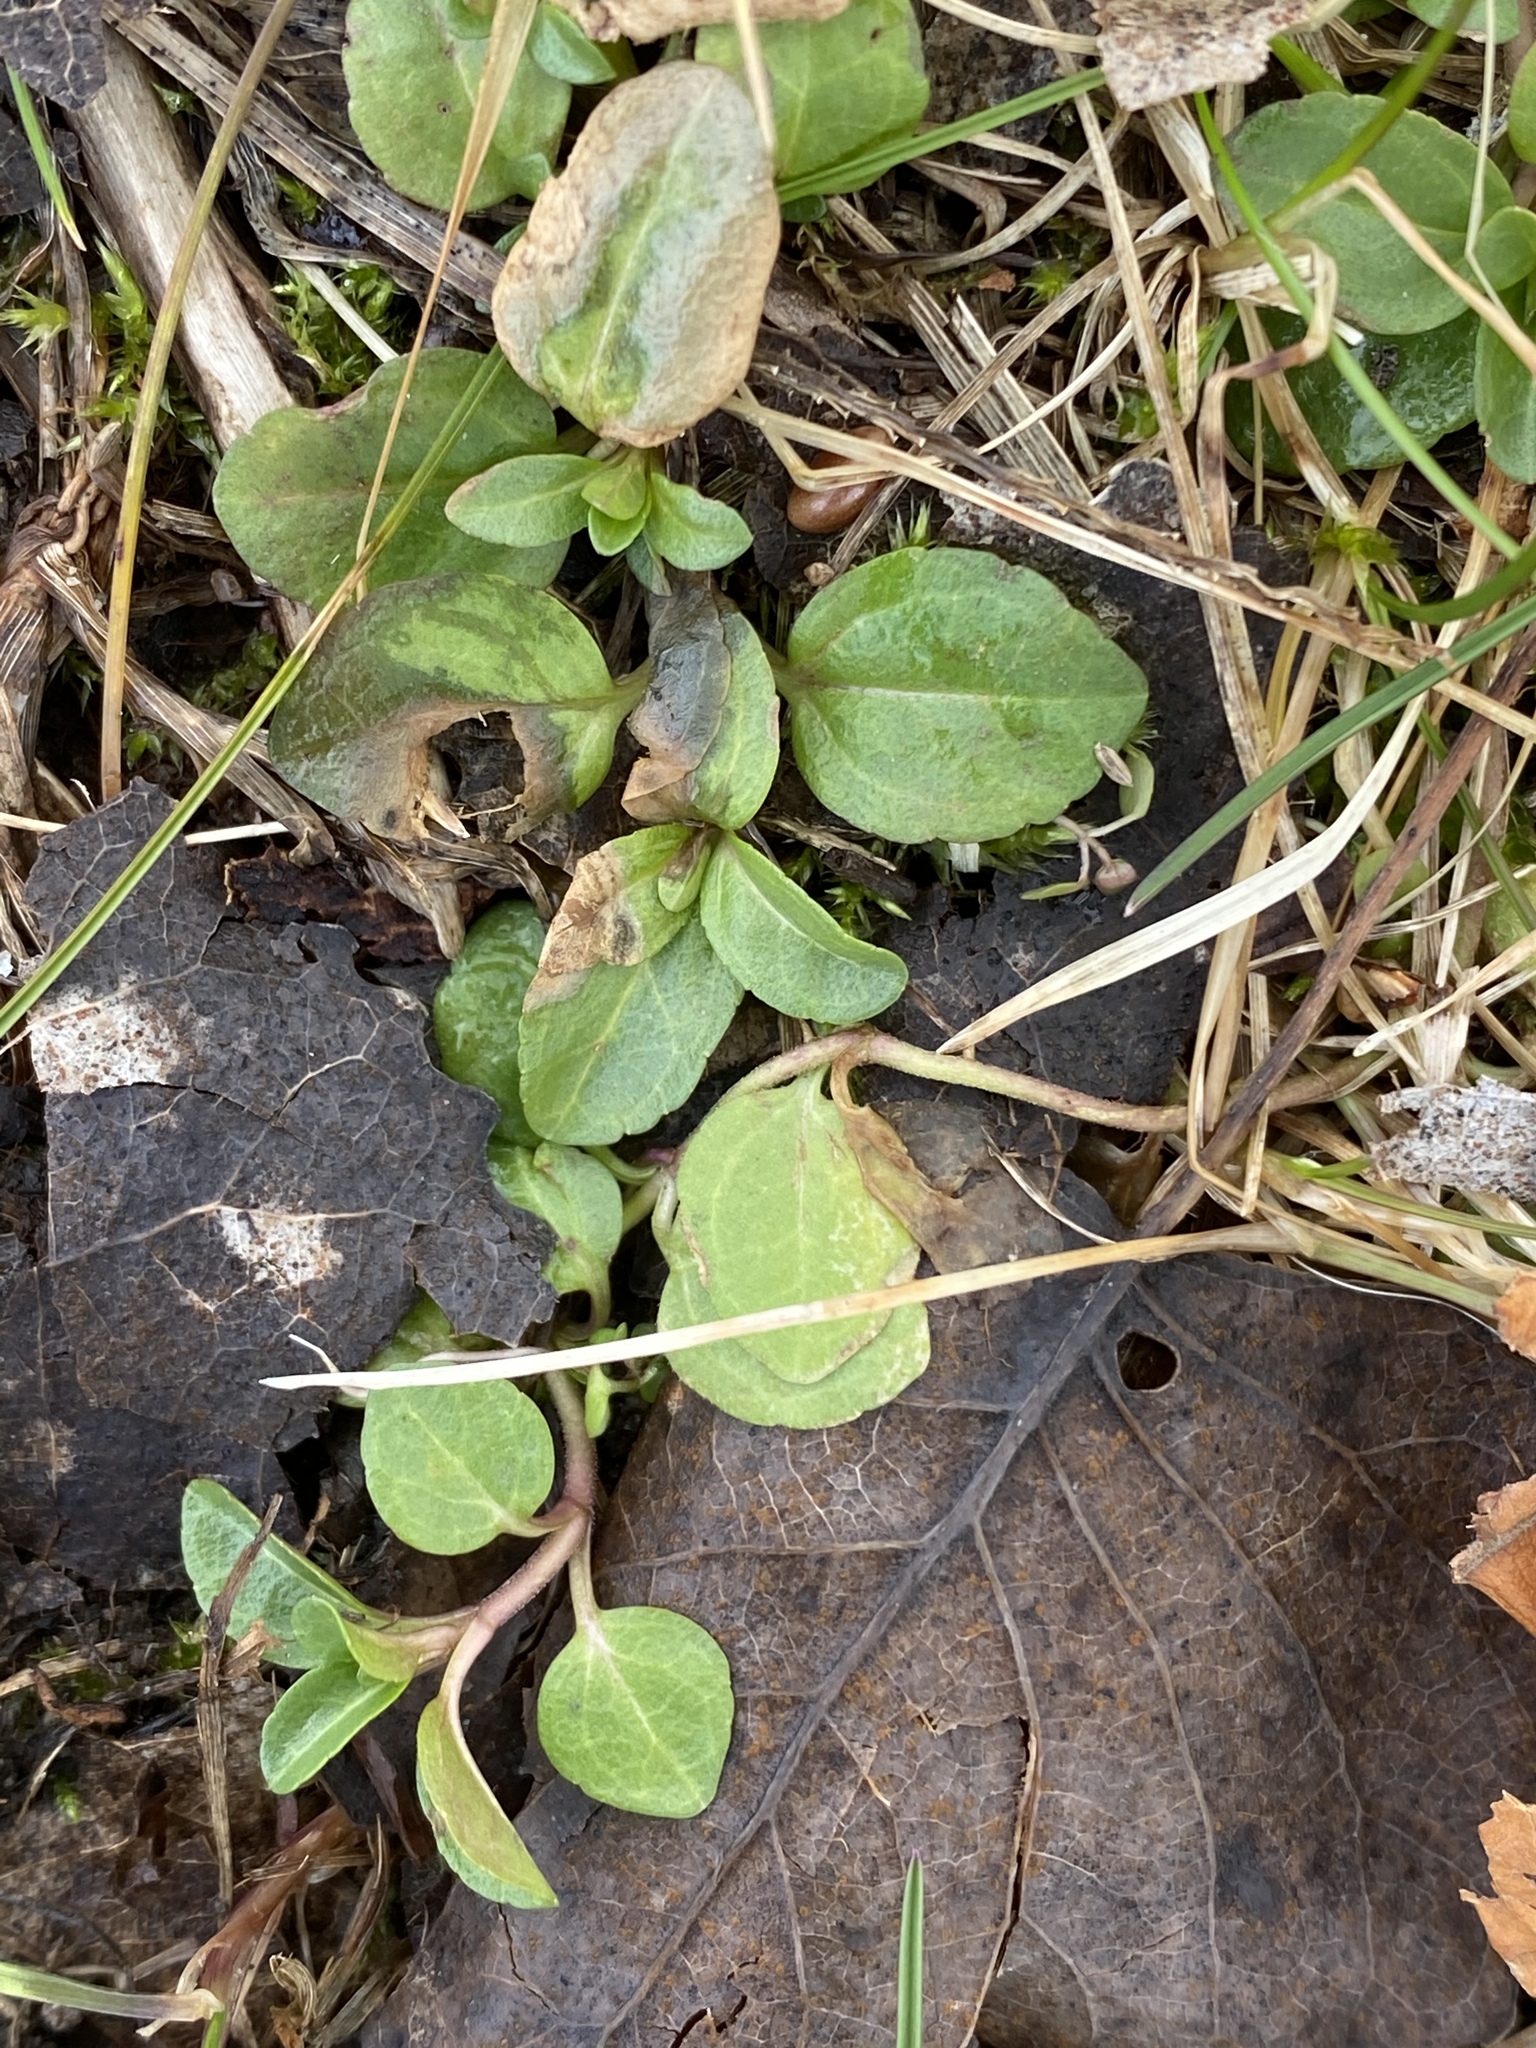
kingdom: Plantae
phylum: Tracheophyta
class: Magnoliopsida
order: Lamiales
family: Plantaginaceae
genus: Veronica
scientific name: Veronica serpyllifolia
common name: Thyme-leaved speedwell
